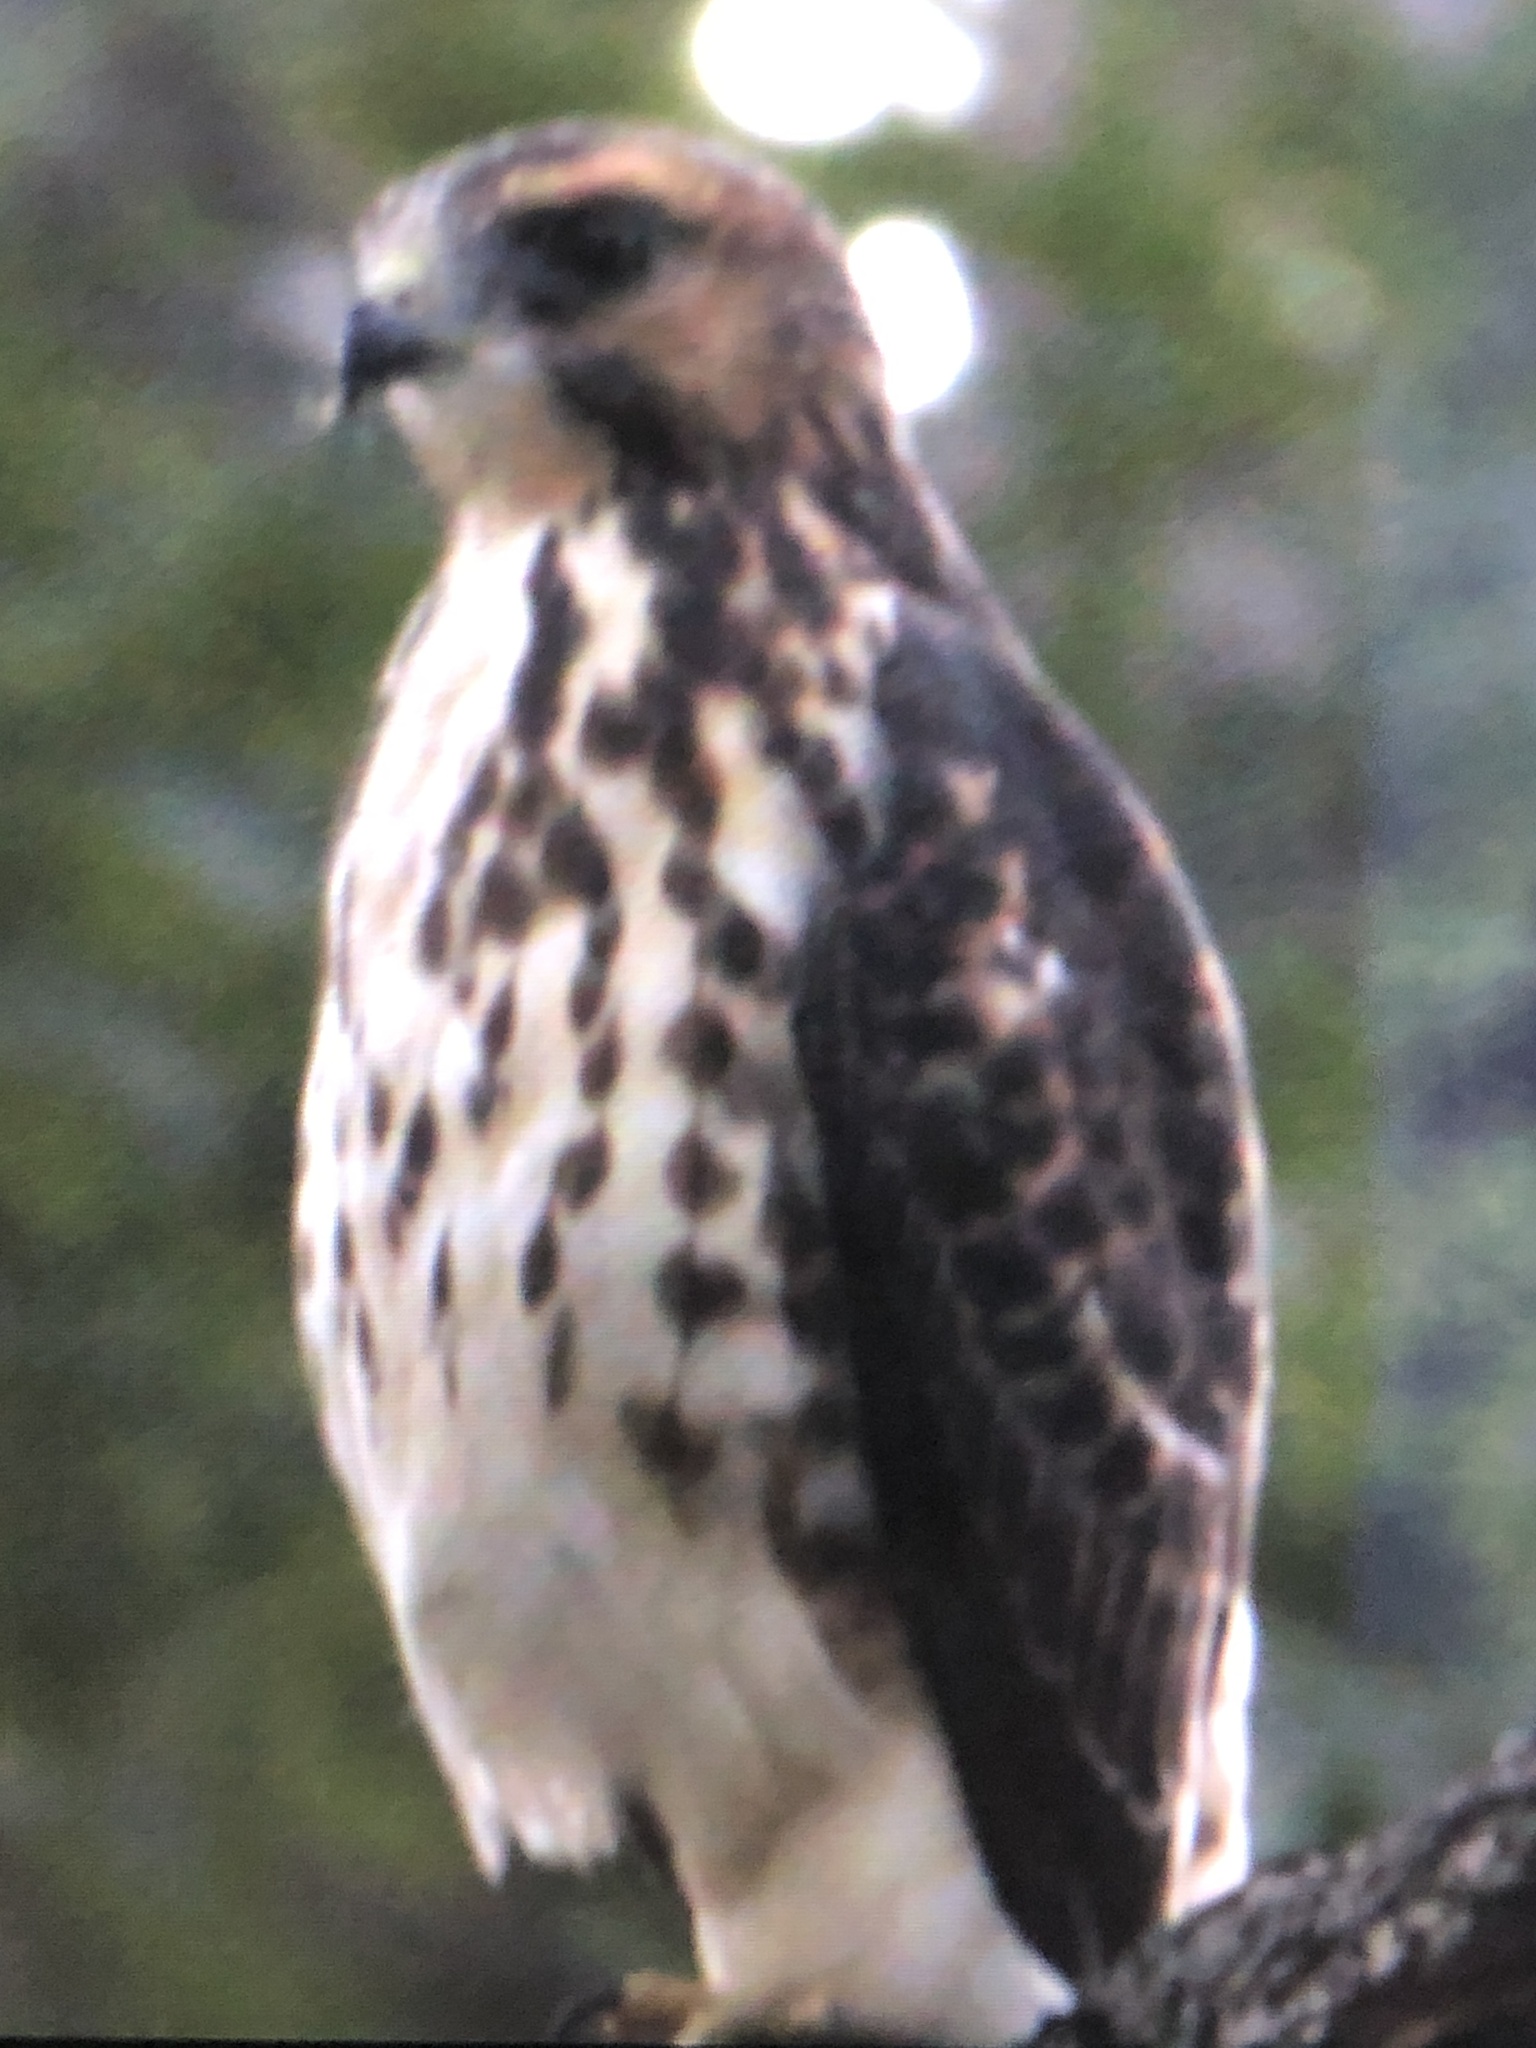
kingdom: Animalia
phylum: Chordata
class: Aves
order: Accipitriformes
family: Accipitridae
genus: Buteo
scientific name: Buteo platypterus
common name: Broad-winged hawk
